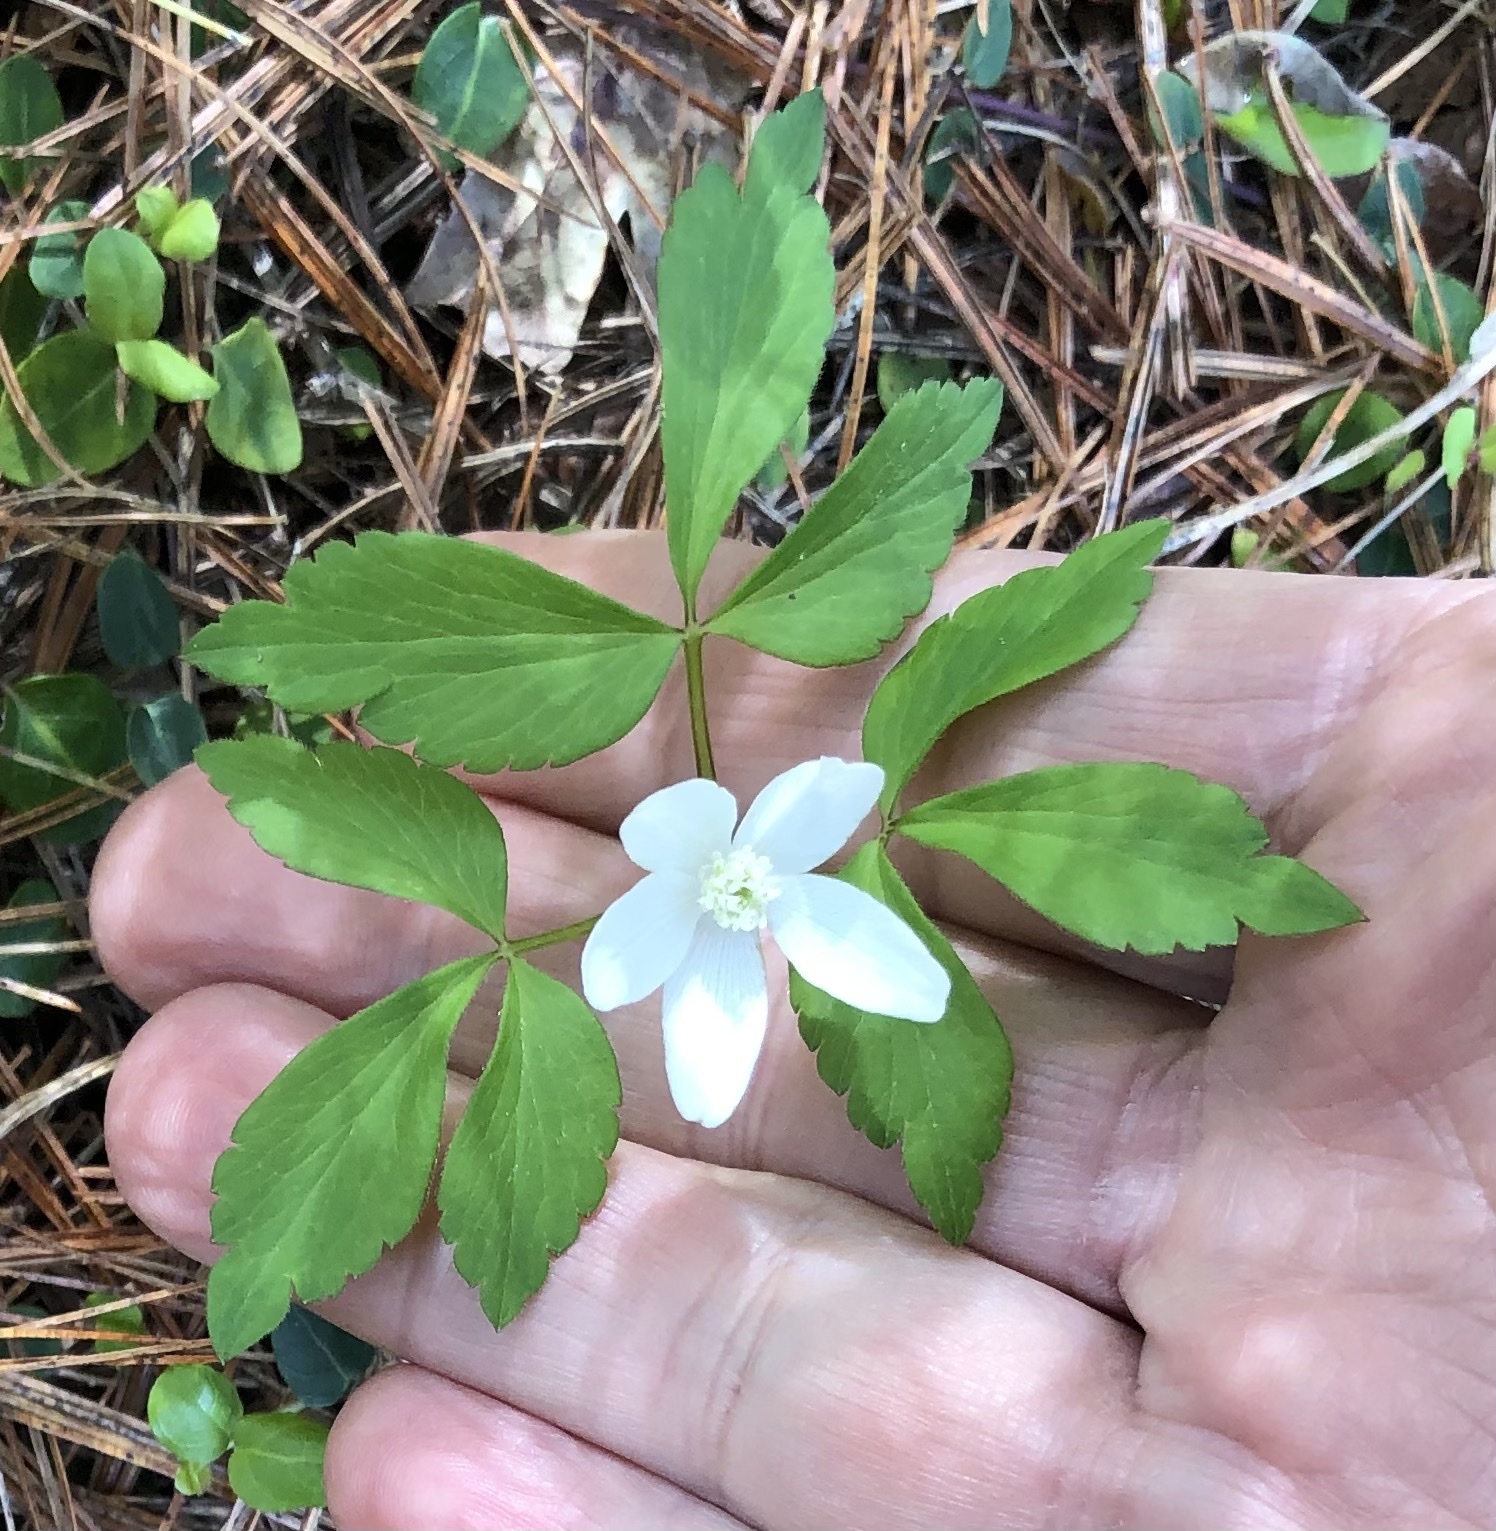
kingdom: Plantae
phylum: Tracheophyta
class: Magnoliopsida
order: Ranunculales
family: Ranunculaceae
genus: Anemone
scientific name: Anemone quinquefolia
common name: Wood anemone
